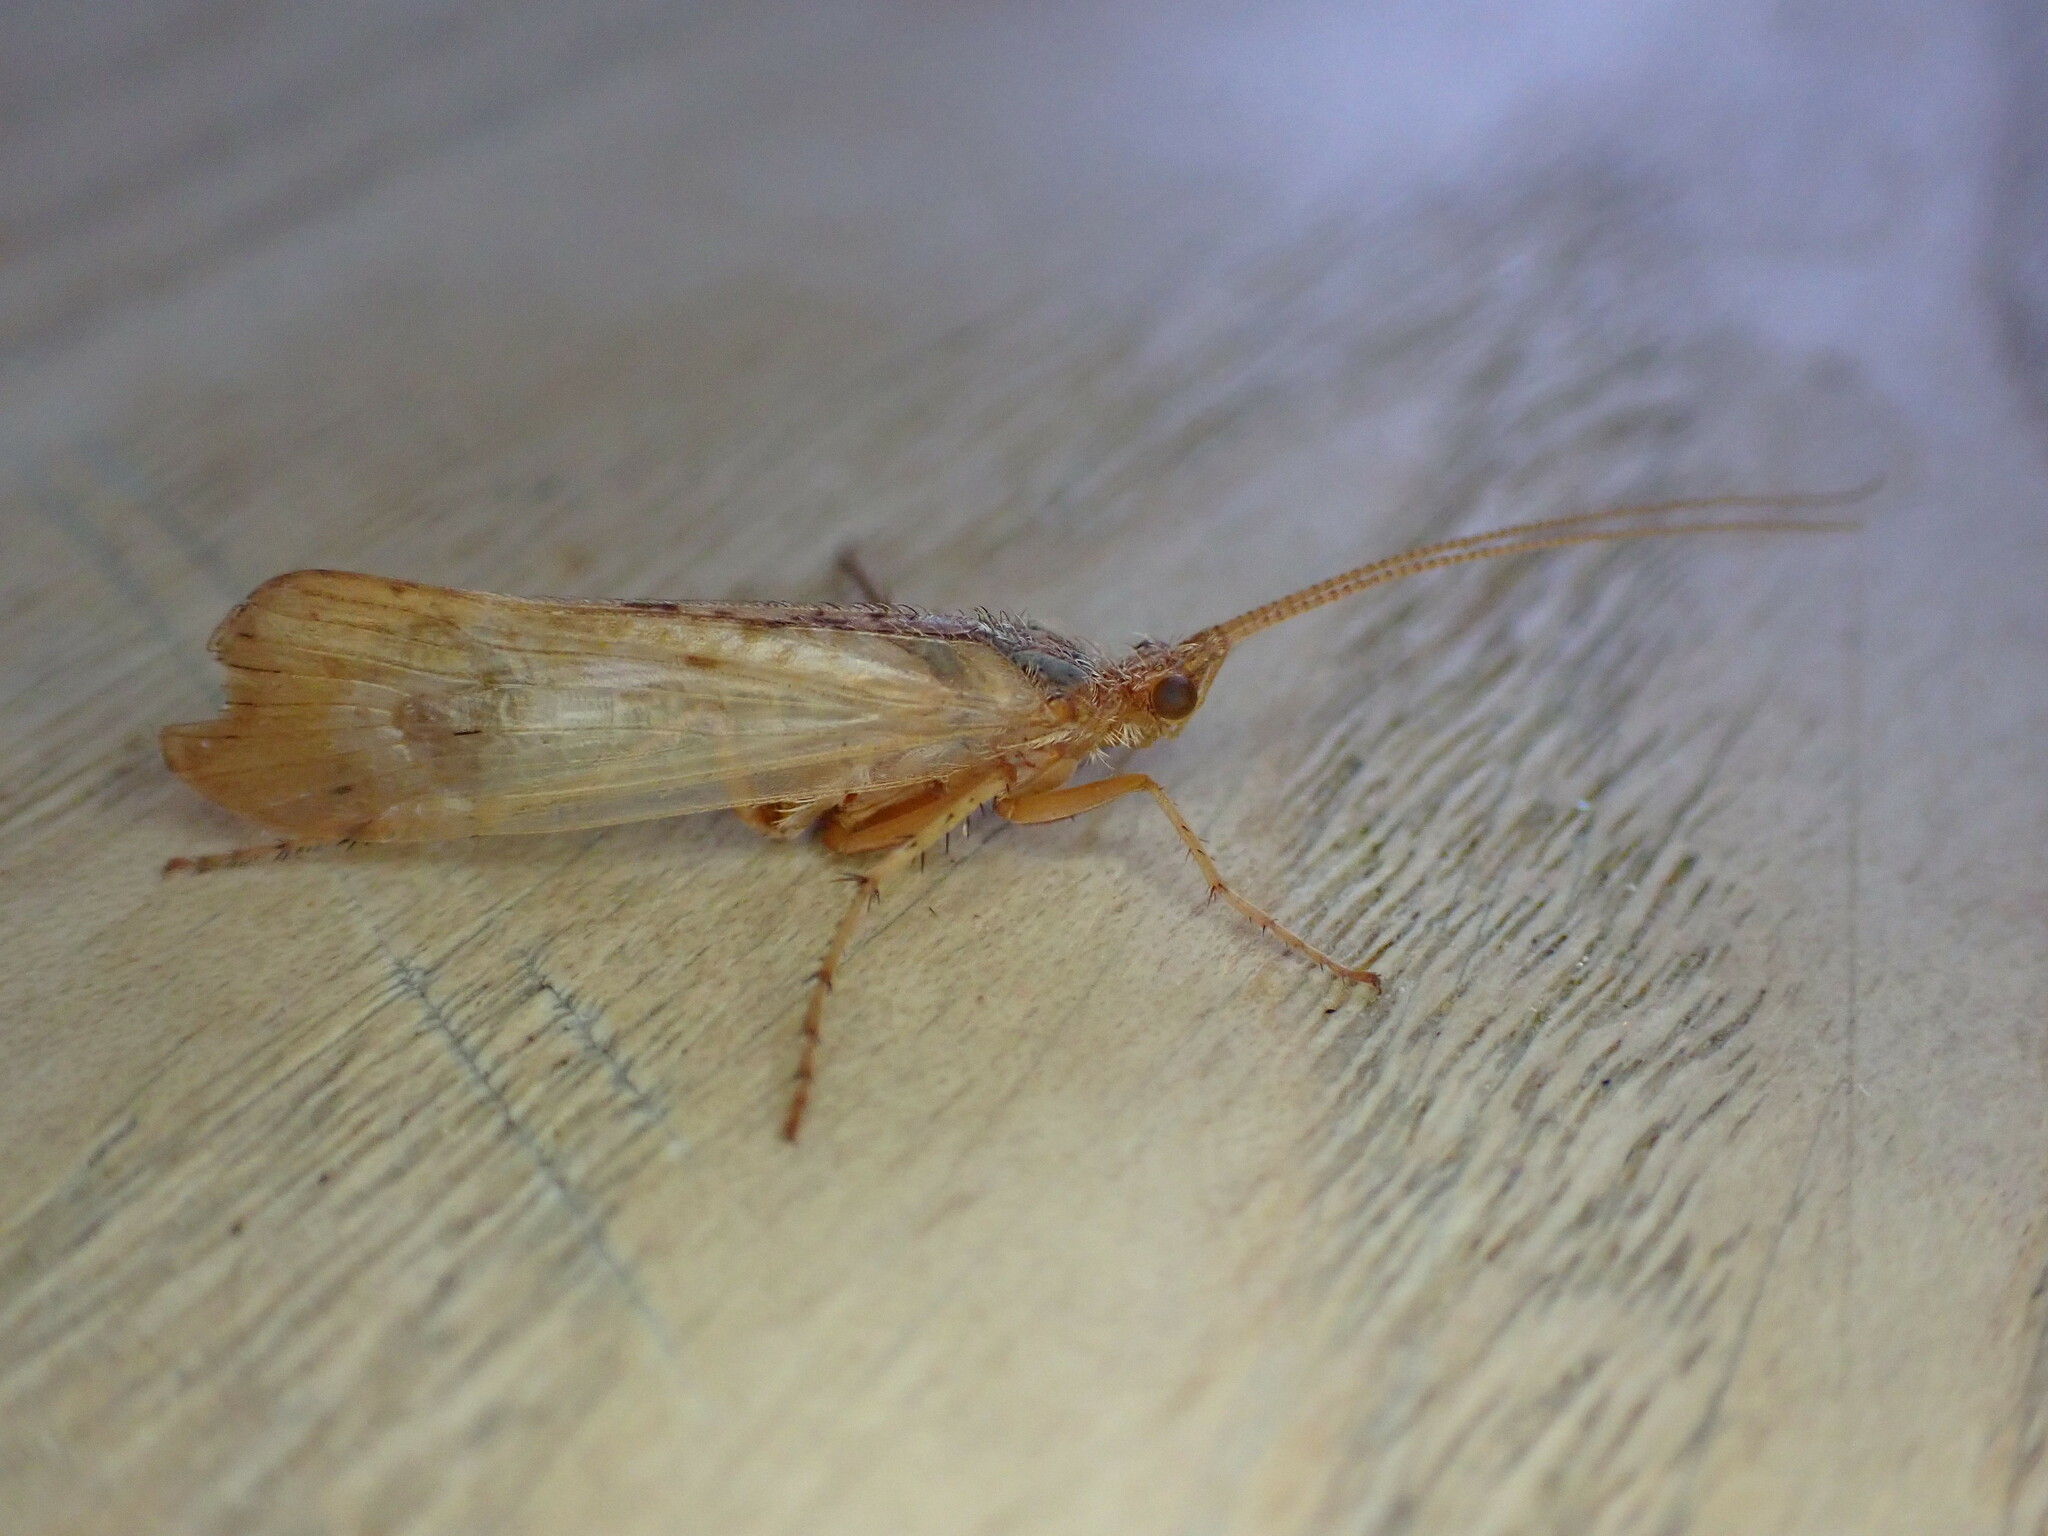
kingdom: Animalia
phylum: Arthropoda
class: Insecta
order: Trichoptera
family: Limnephilidae
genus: Limnephilus
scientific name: Limnephilus lunatus
